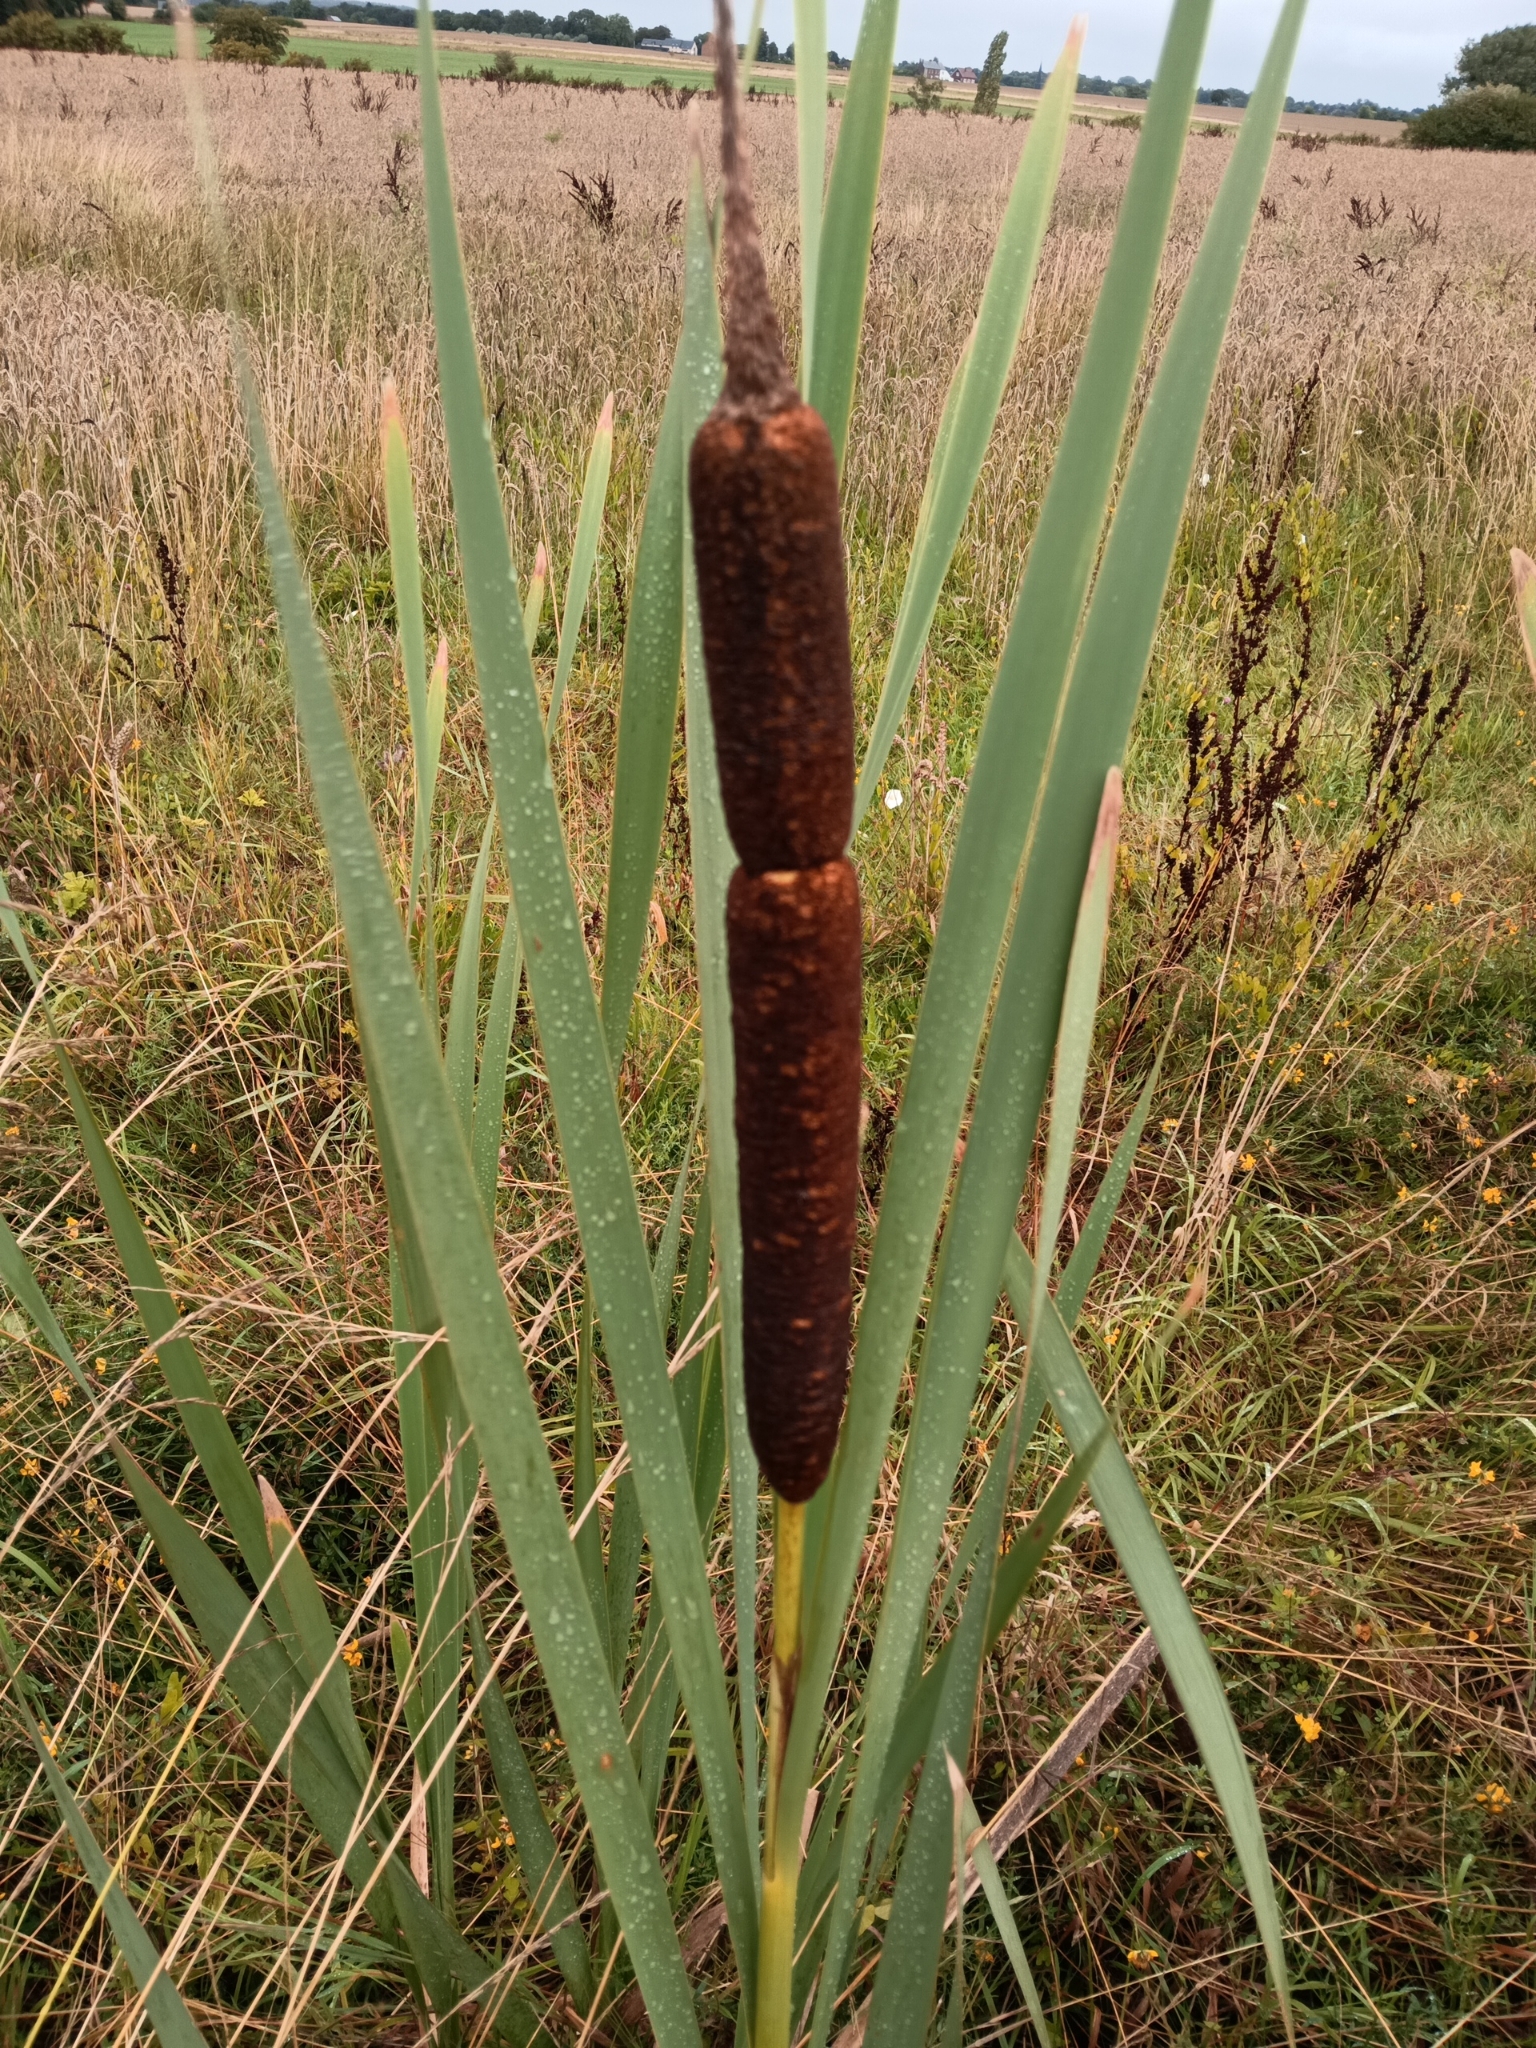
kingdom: Plantae
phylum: Tracheophyta
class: Liliopsida
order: Poales
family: Typhaceae
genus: Typha
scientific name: Typha latifolia
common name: Broadleaf cattail
